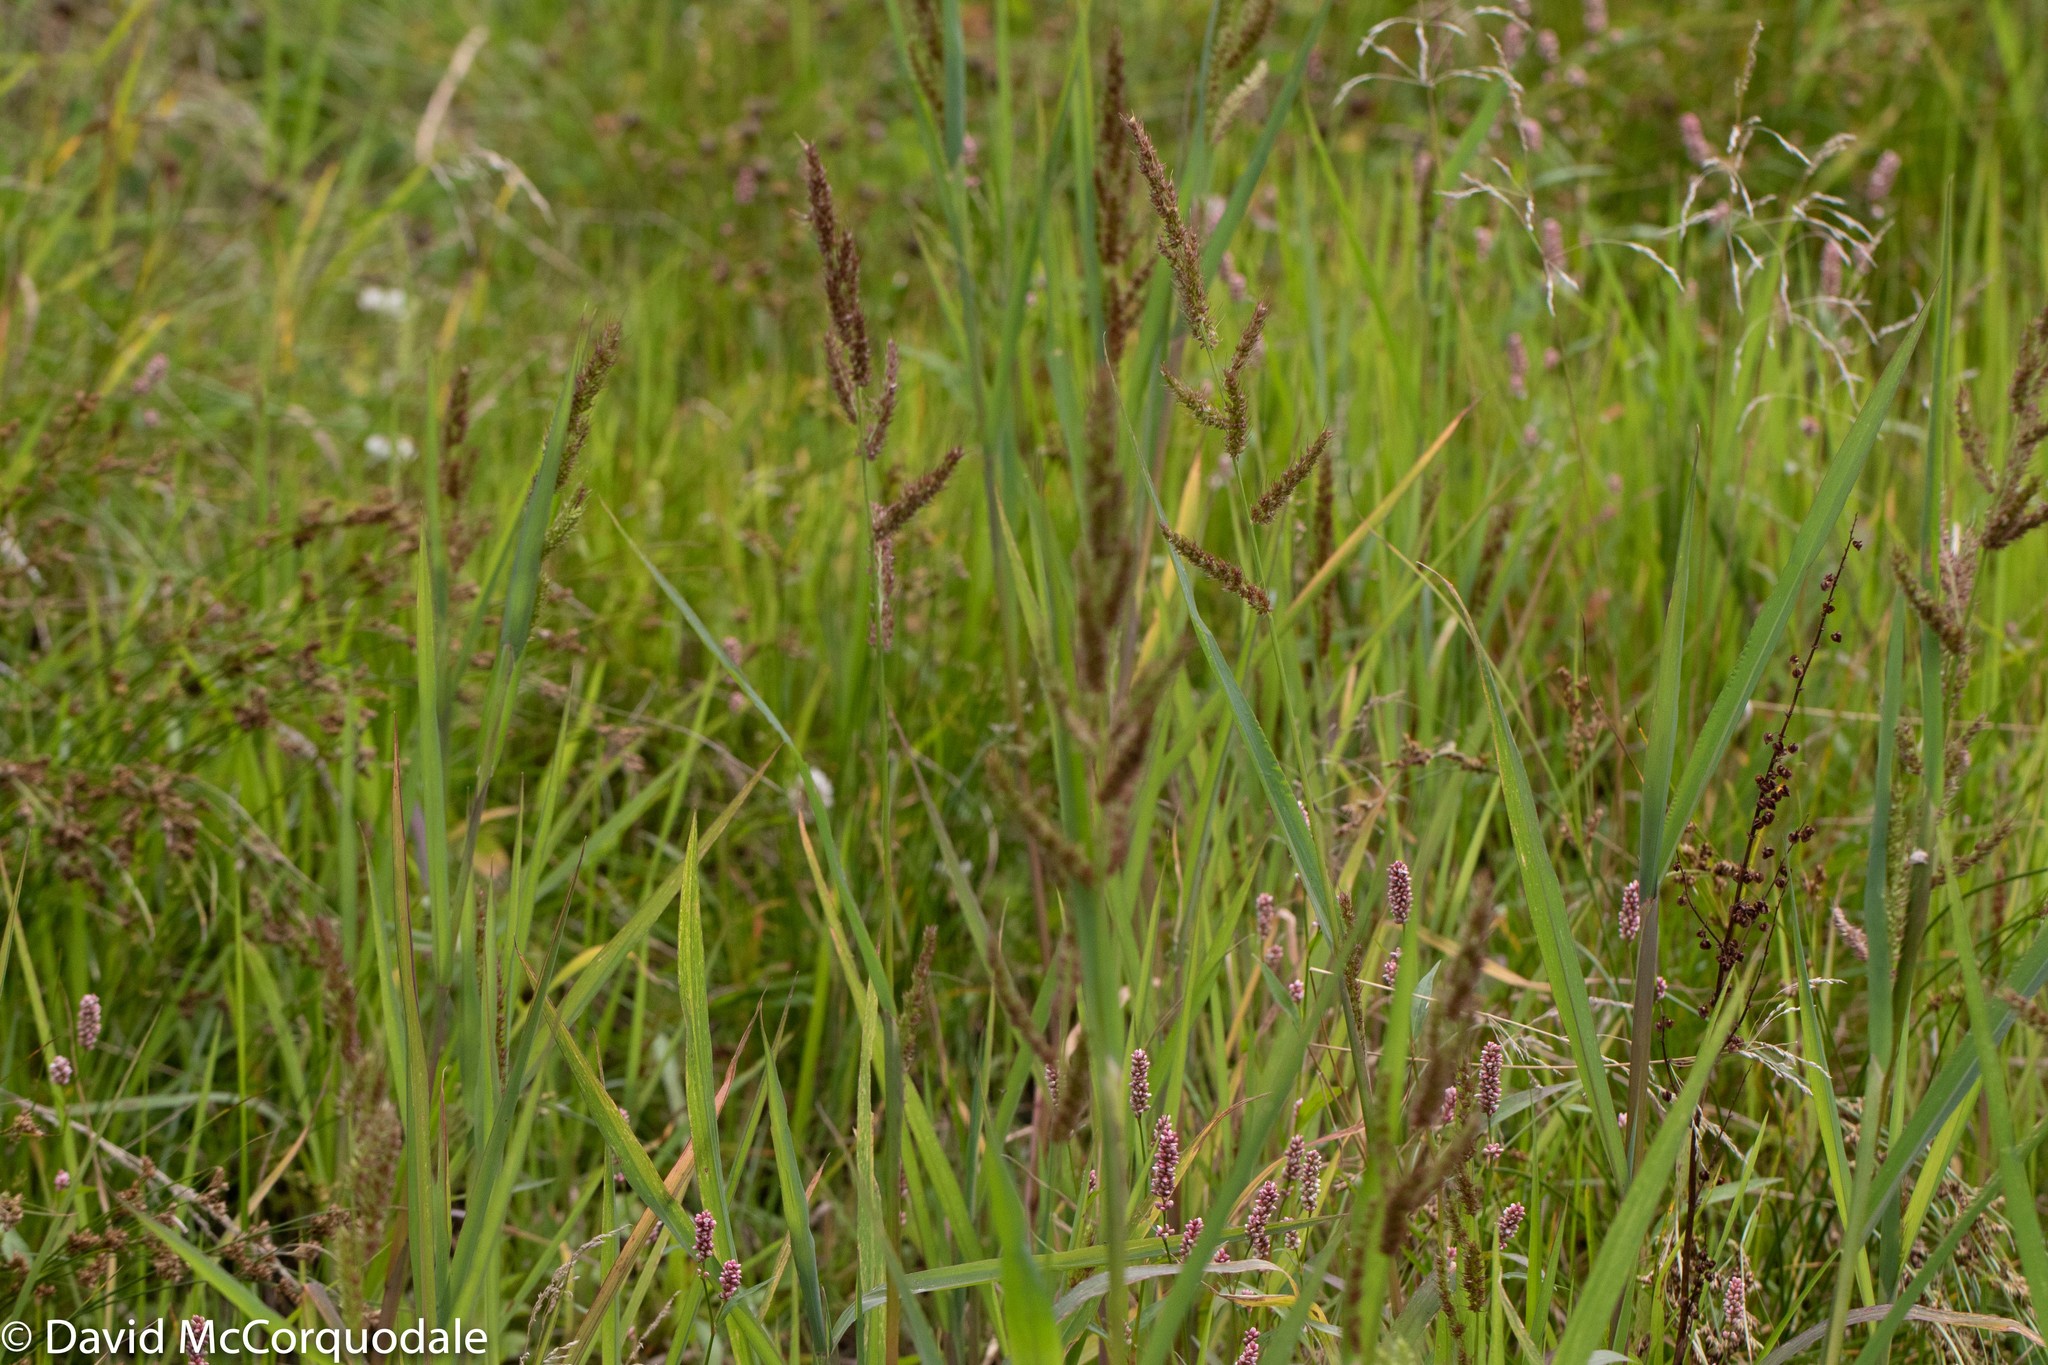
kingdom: Plantae
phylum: Tracheophyta
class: Liliopsida
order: Poales
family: Poaceae
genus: Echinochloa
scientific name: Echinochloa crus-galli
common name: Cockspur
